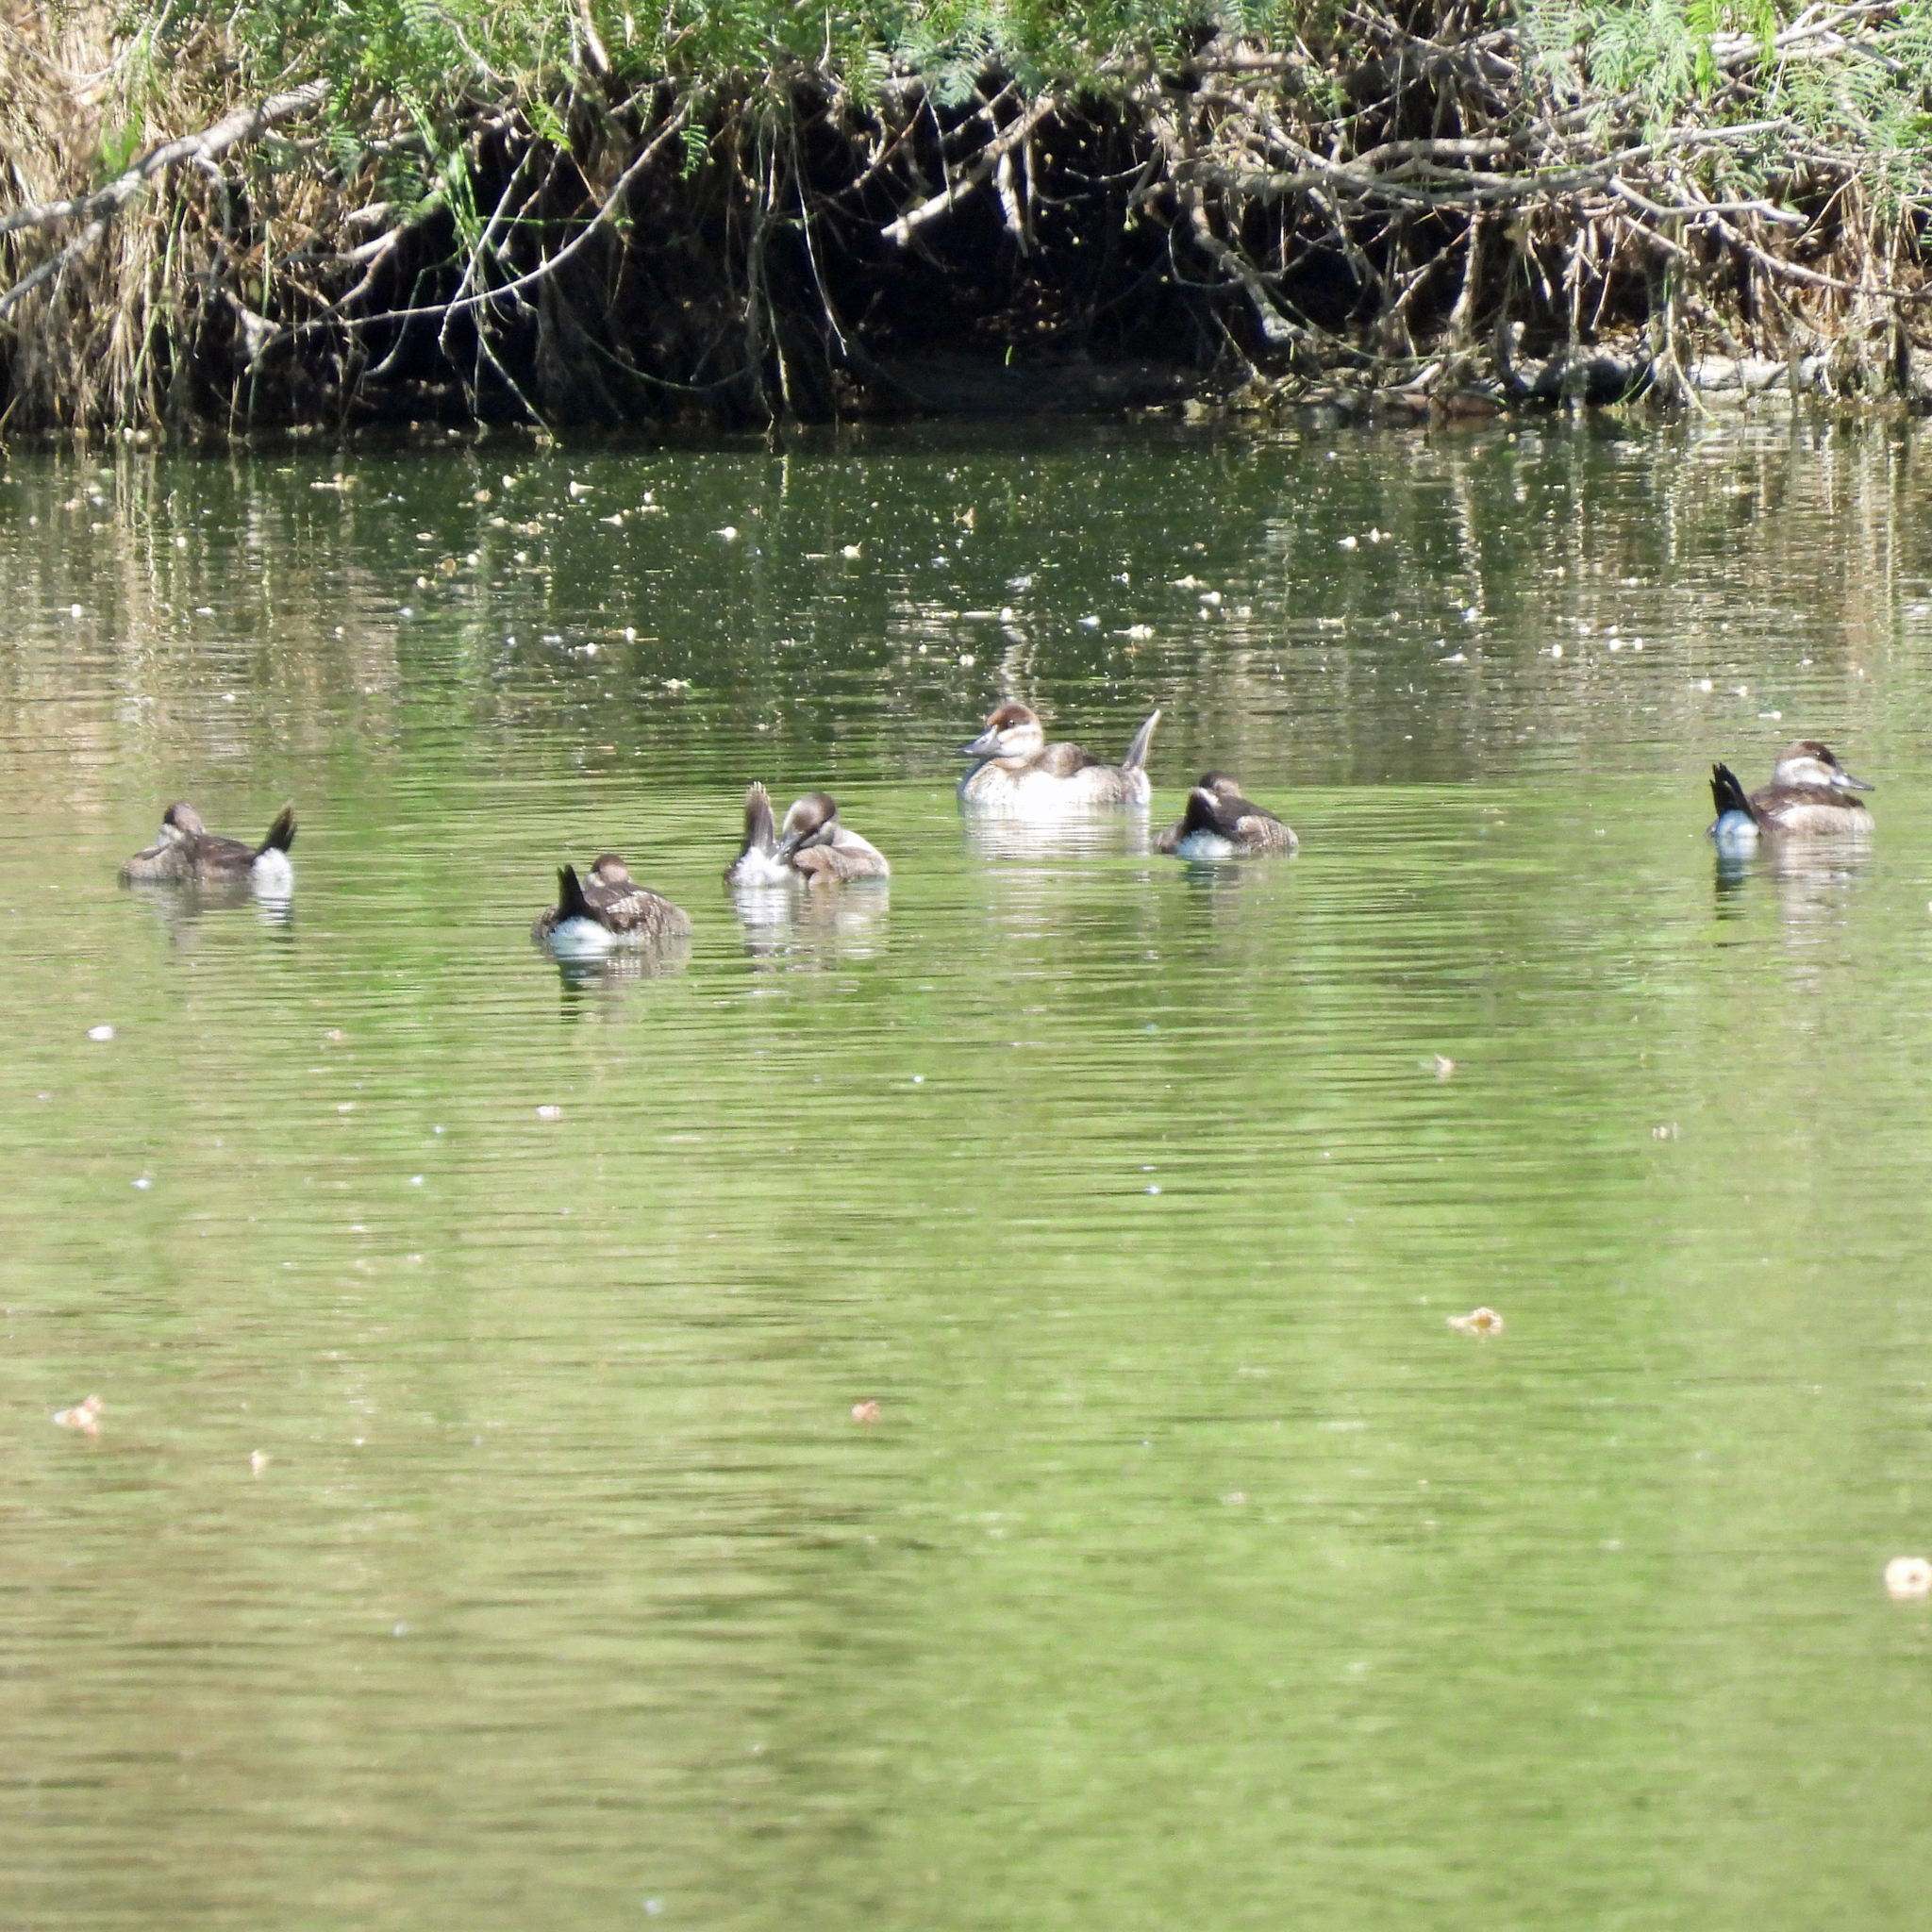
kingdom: Animalia
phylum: Chordata
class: Aves
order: Anseriformes
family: Anatidae
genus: Oxyura
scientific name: Oxyura jamaicensis
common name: Ruddy duck
